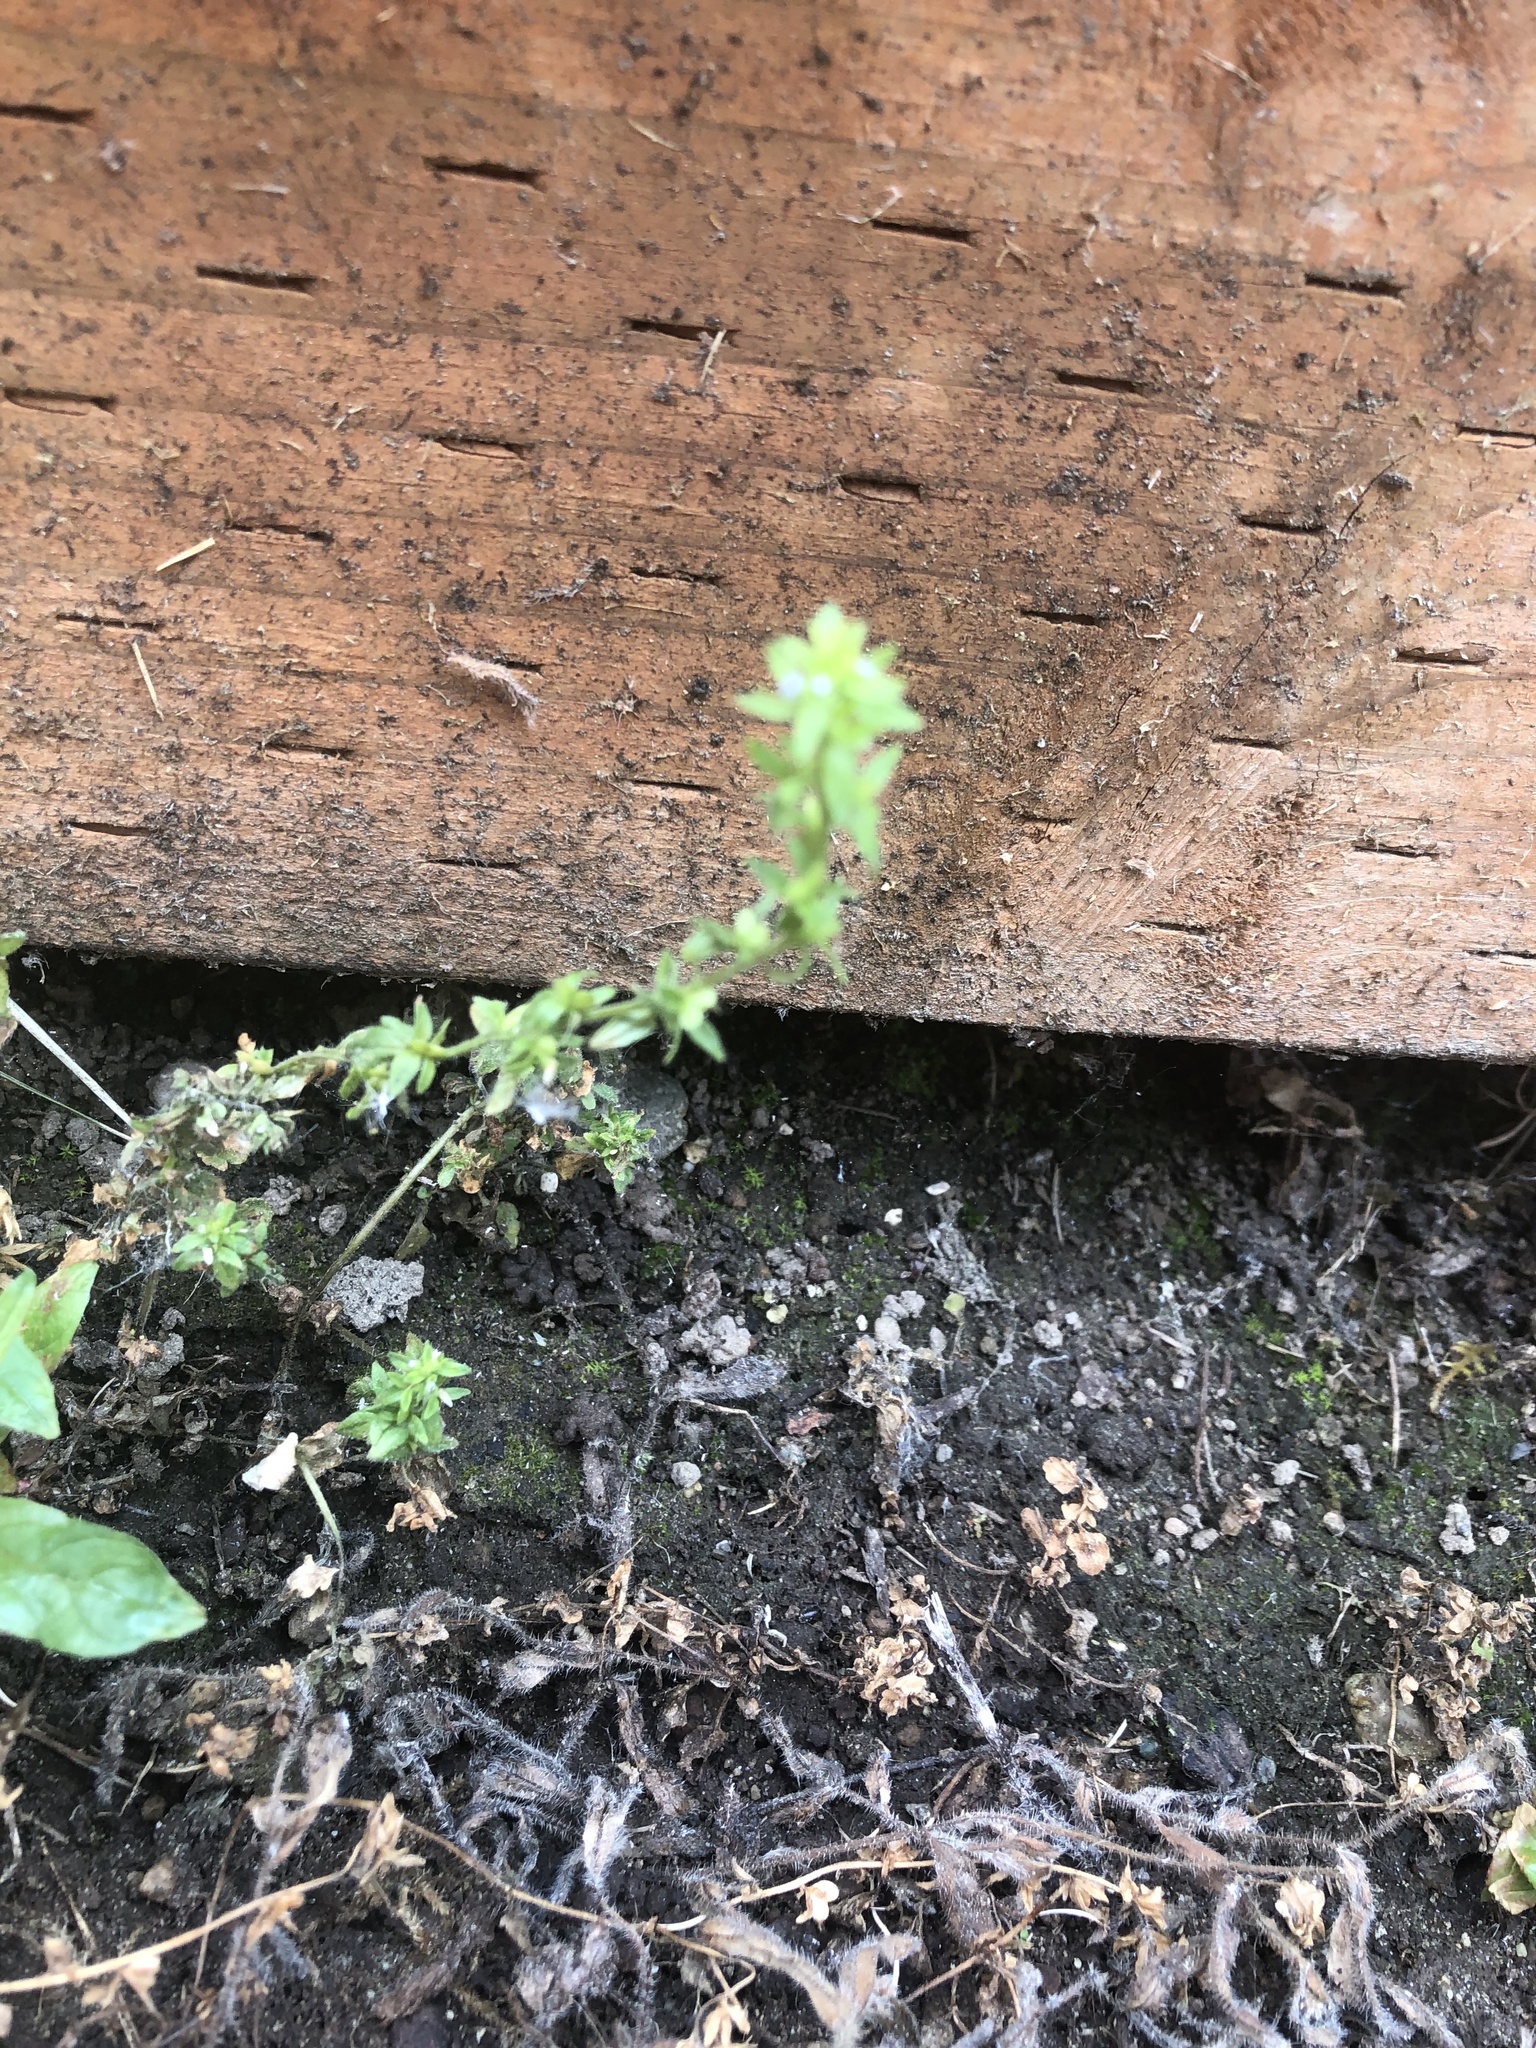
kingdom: Plantae
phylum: Tracheophyta
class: Magnoliopsida
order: Lamiales
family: Plantaginaceae
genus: Veronica
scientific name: Veronica arvensis
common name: Corn speedwell
